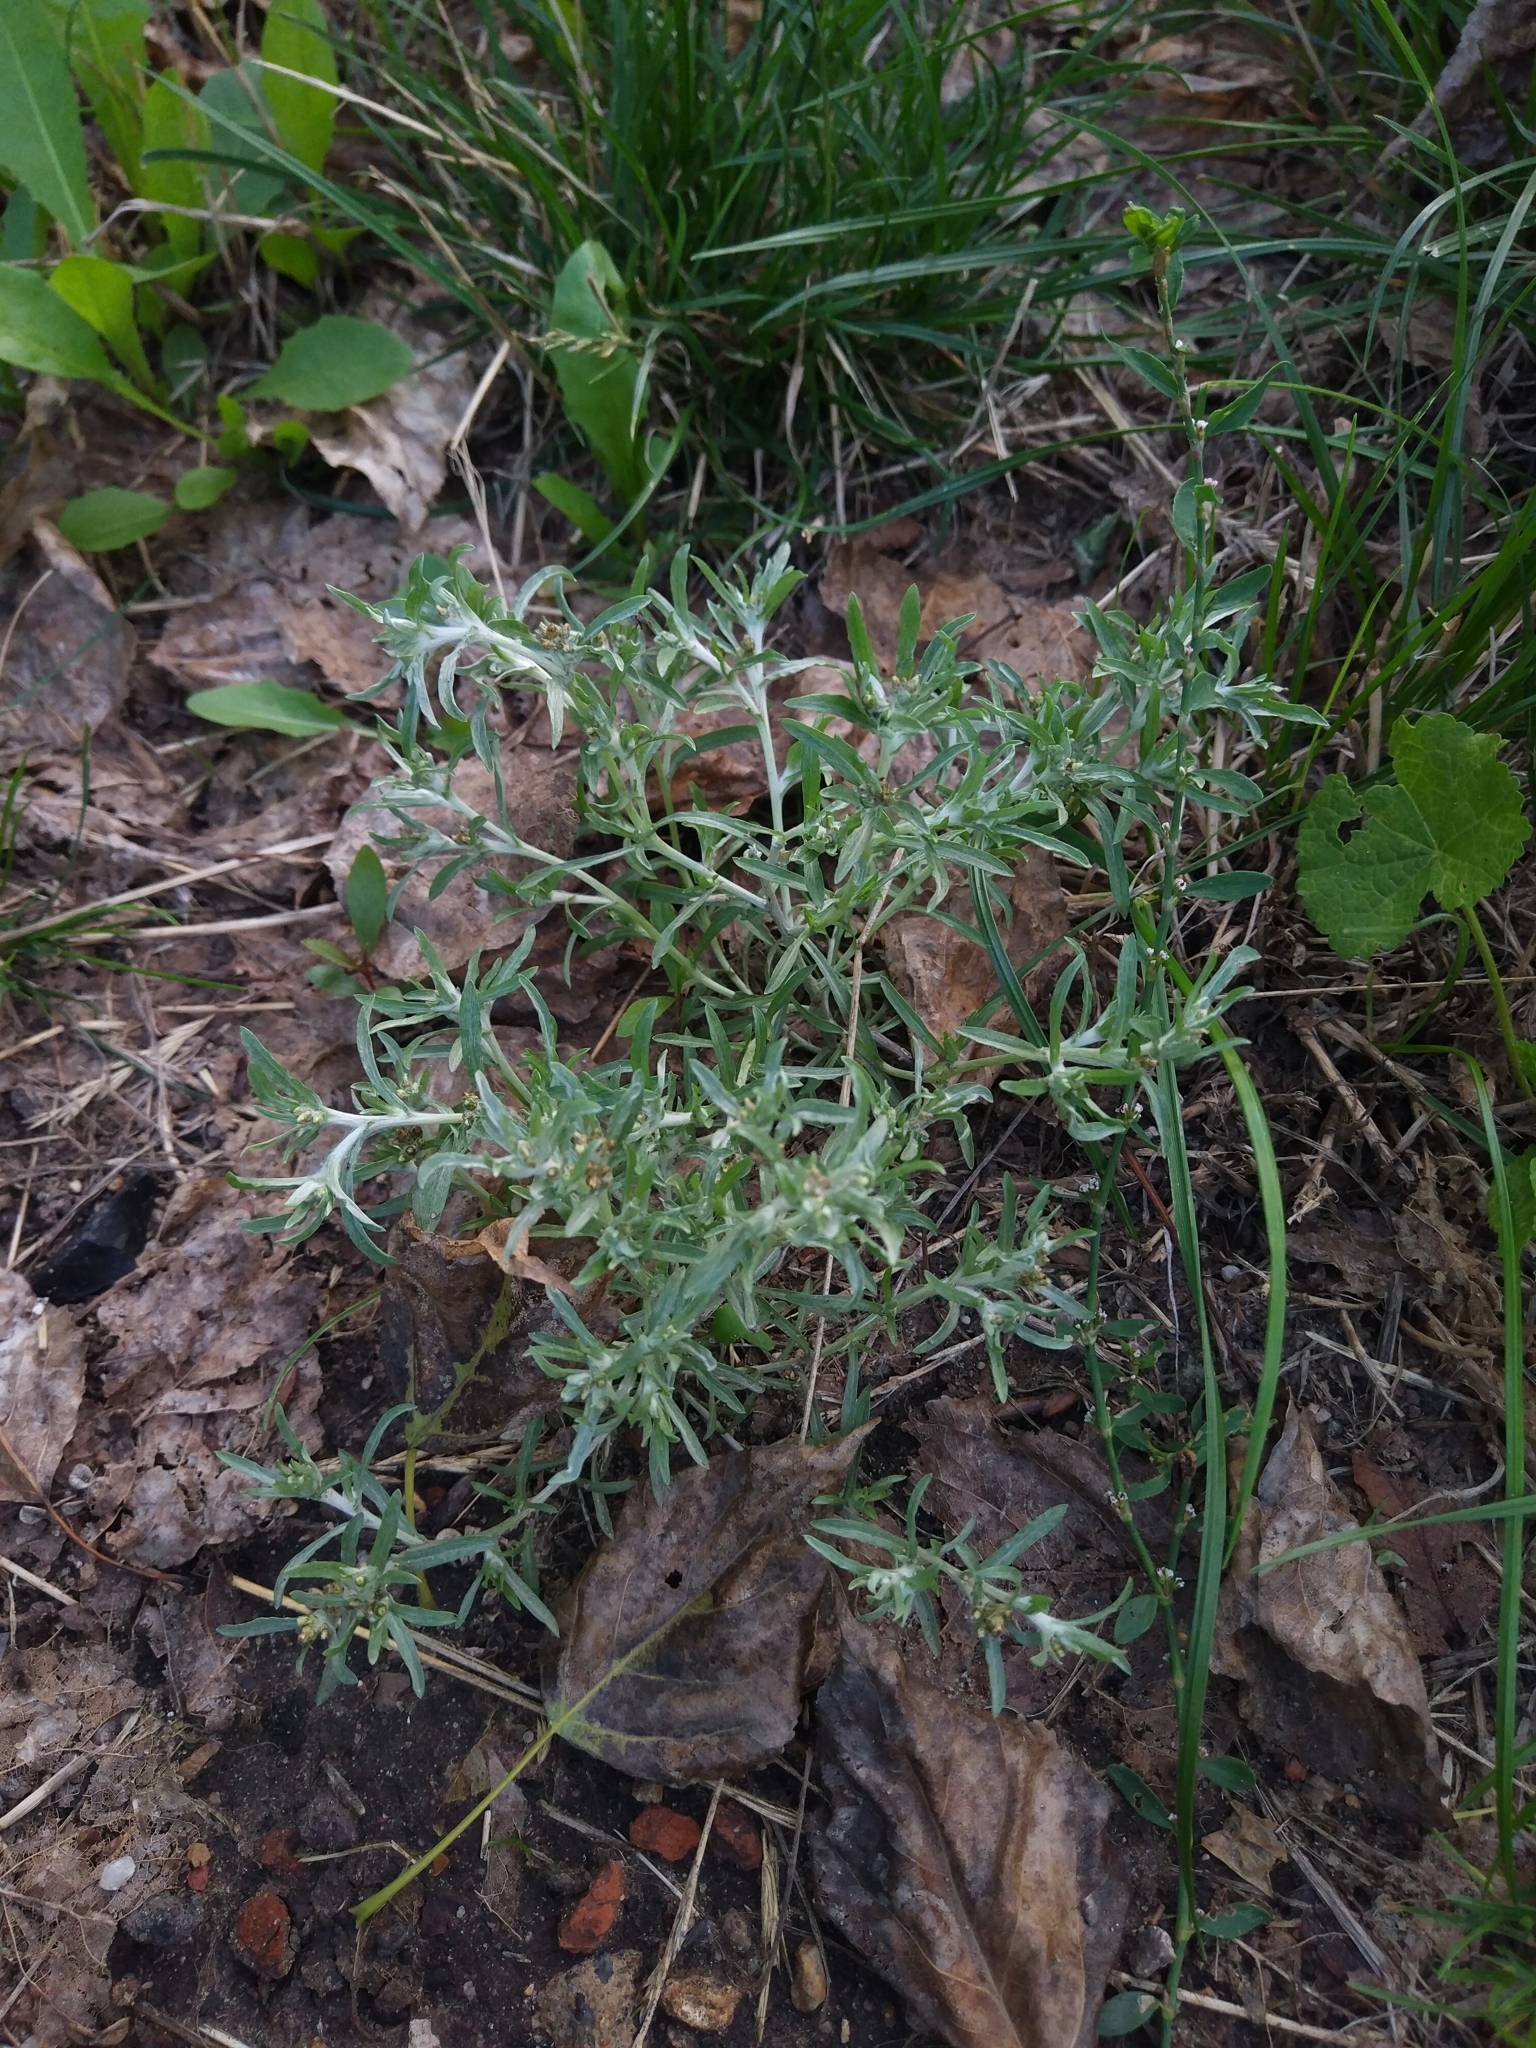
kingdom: Plantae
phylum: Tracheophyta
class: Magnoliopsida
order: Asterales
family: Asteraceae
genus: Gnaphalium
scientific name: Gnaphalium uliginosum
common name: Marsh cudweed
